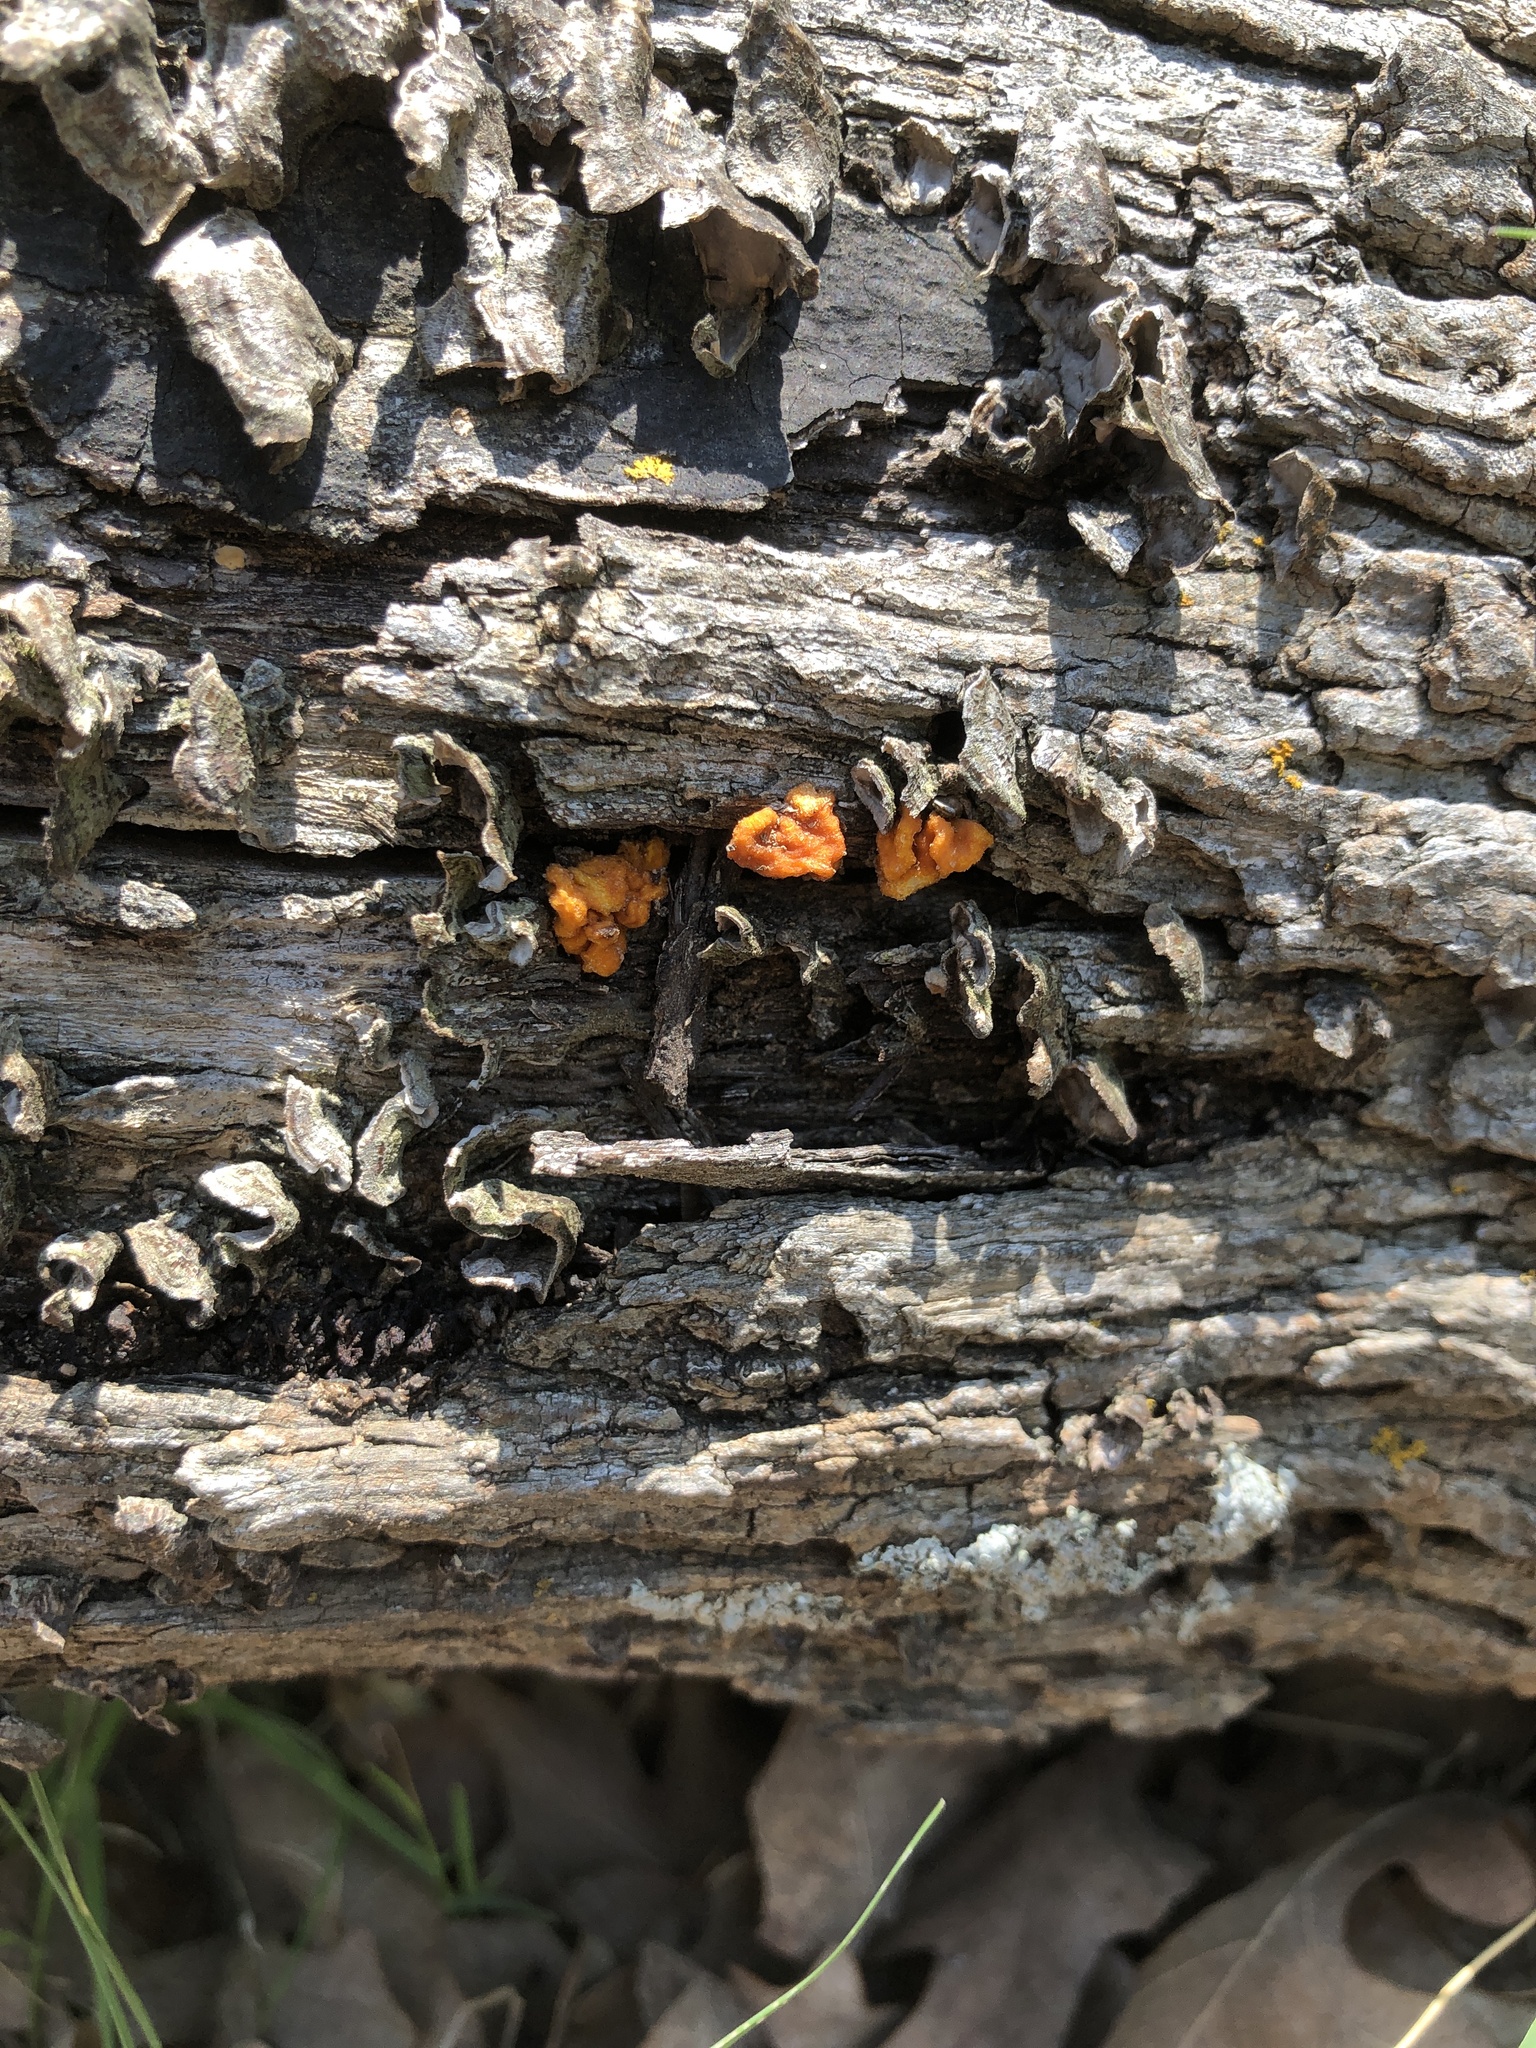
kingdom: Fungi
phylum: Basidiomycota
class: Tremellomycetes
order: Tremellales
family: Naemateliaceae
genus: Naematelia
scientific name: Naematelia aurantia
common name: Golden ear
